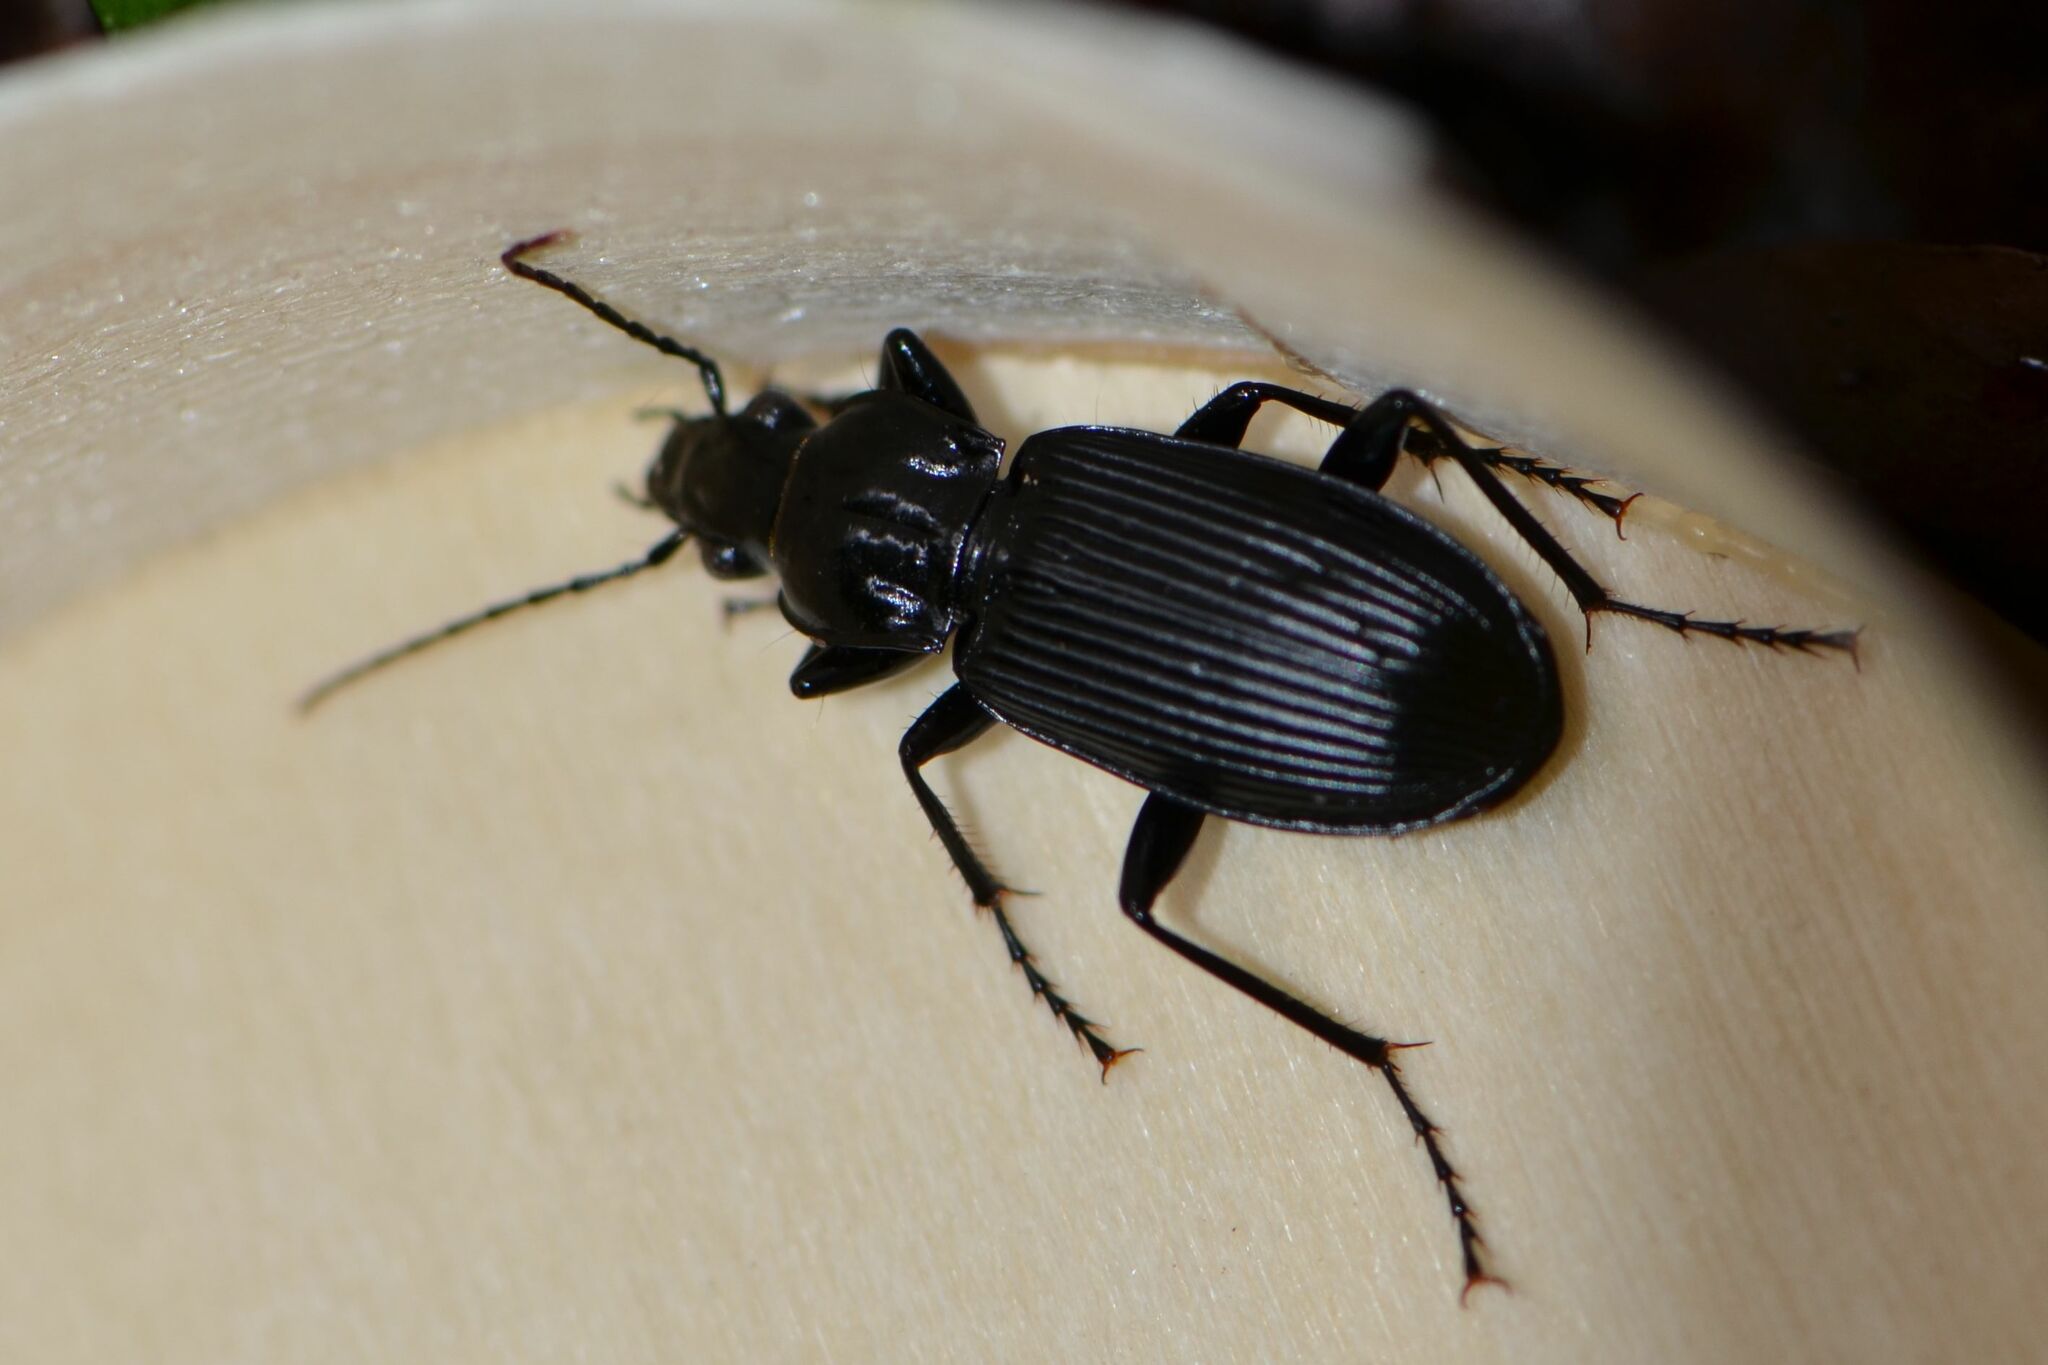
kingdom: Animalia
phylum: Arthropoda
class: Insecta
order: Coleoptera
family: Carabidae
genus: Pterostichus
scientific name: Pterostichus niger
